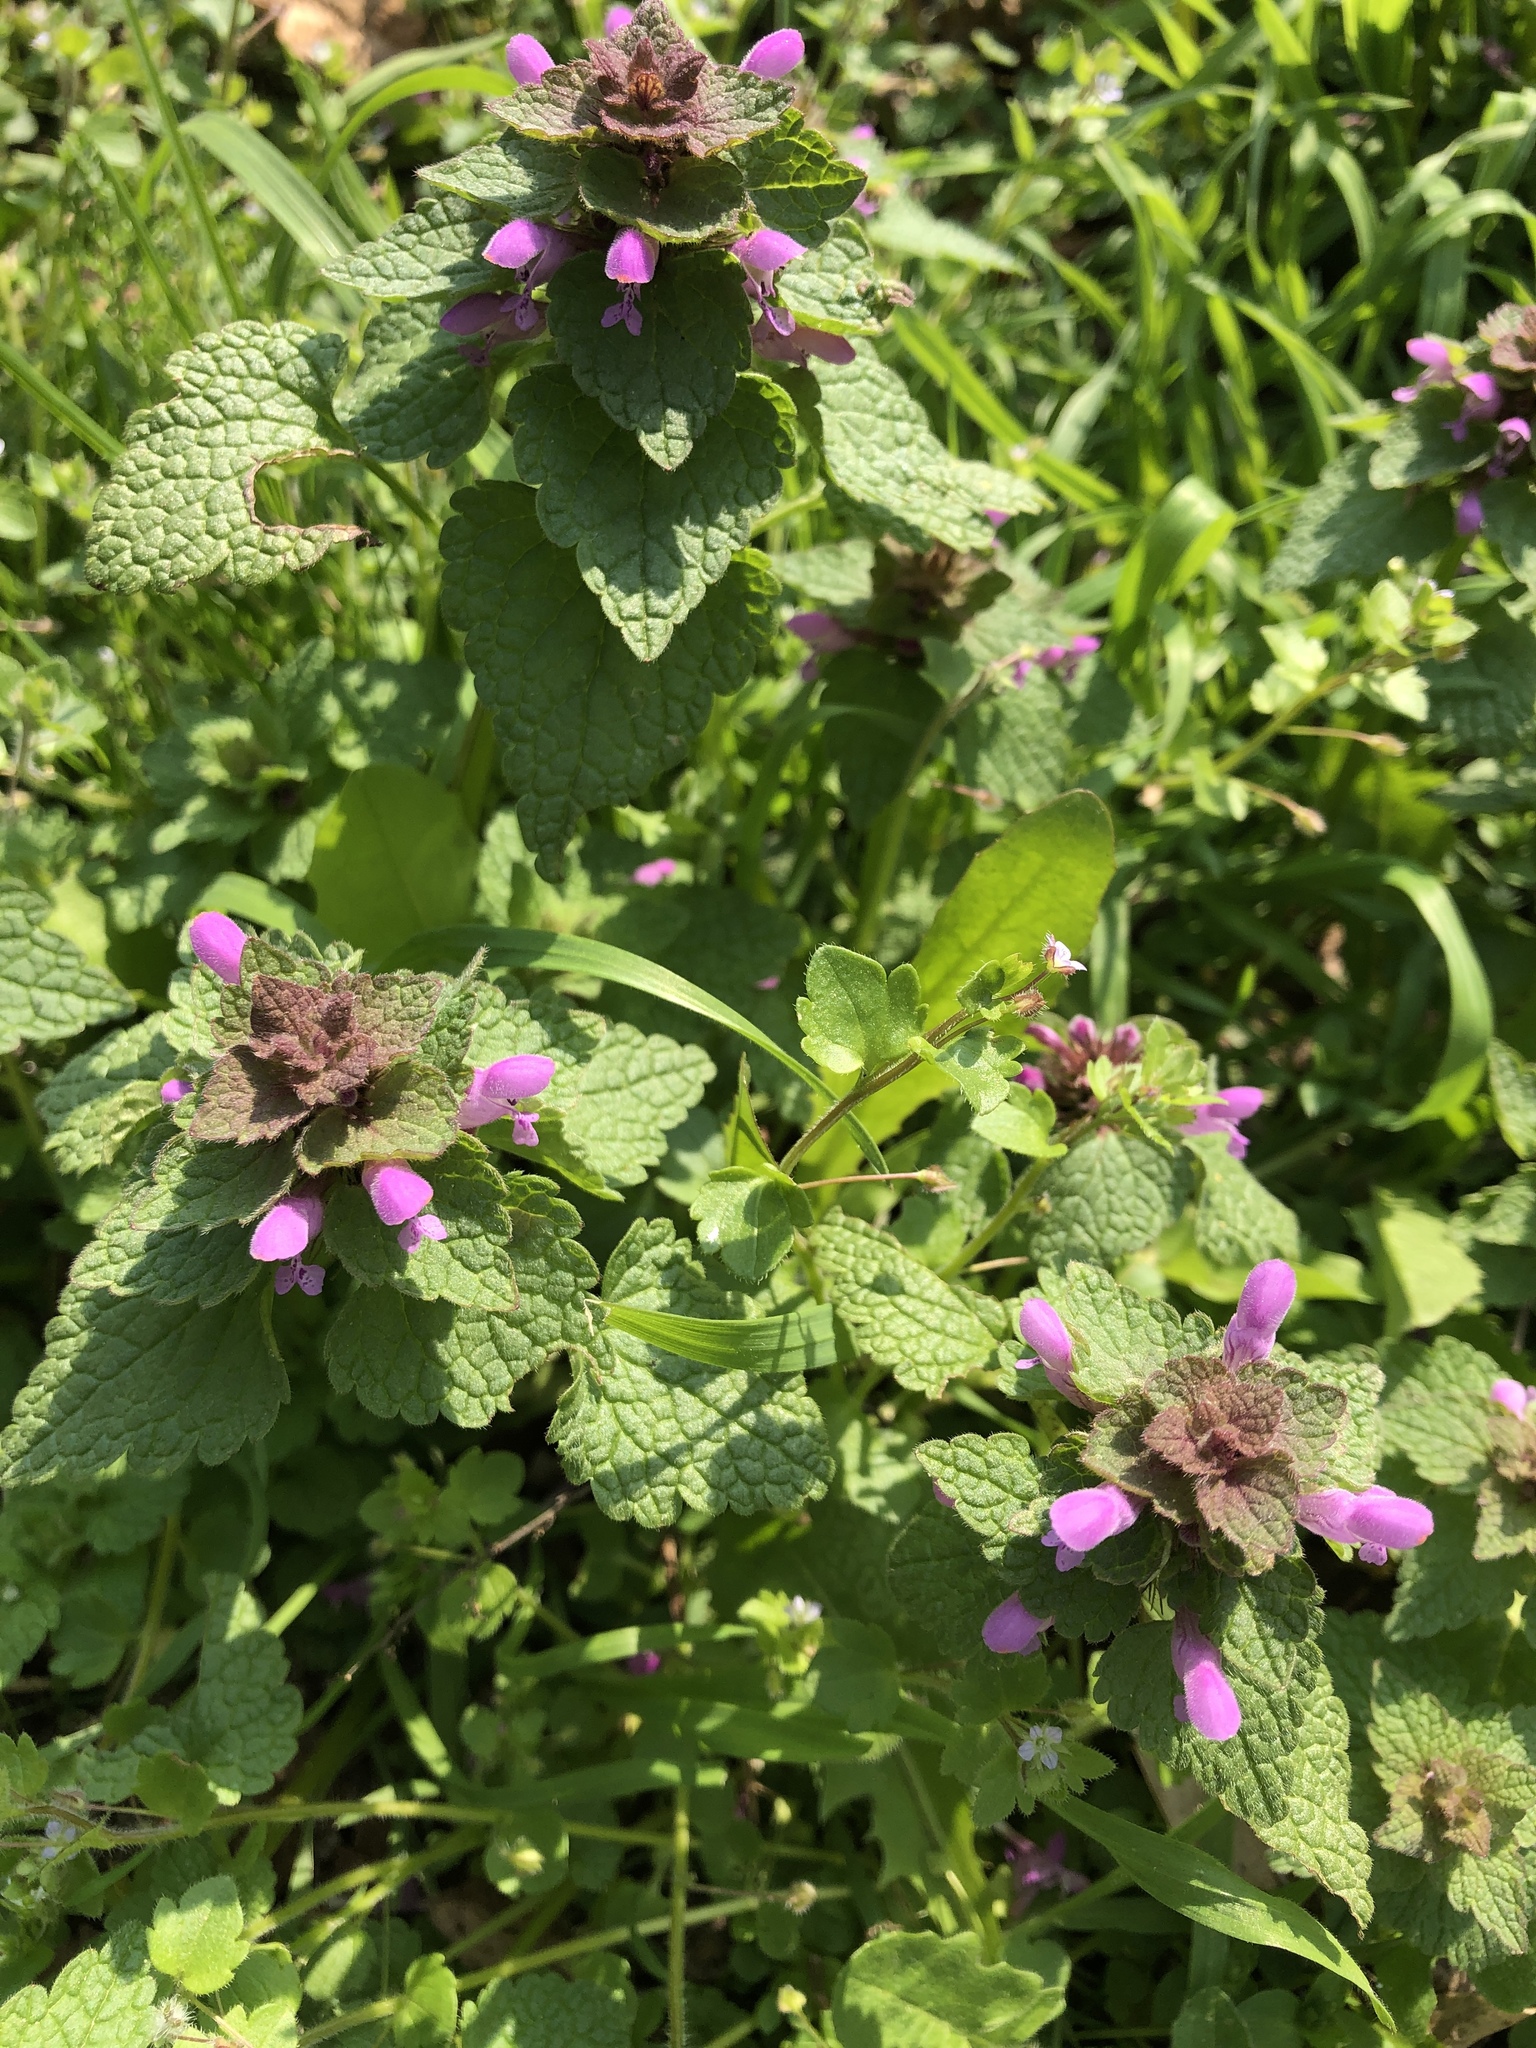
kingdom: Plantae
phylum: Tracheophyta
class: Magnoliopsida
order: Lamiales
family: Lamiaceae
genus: Lamium
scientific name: Lamium purpureum
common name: Red dead-nettle
